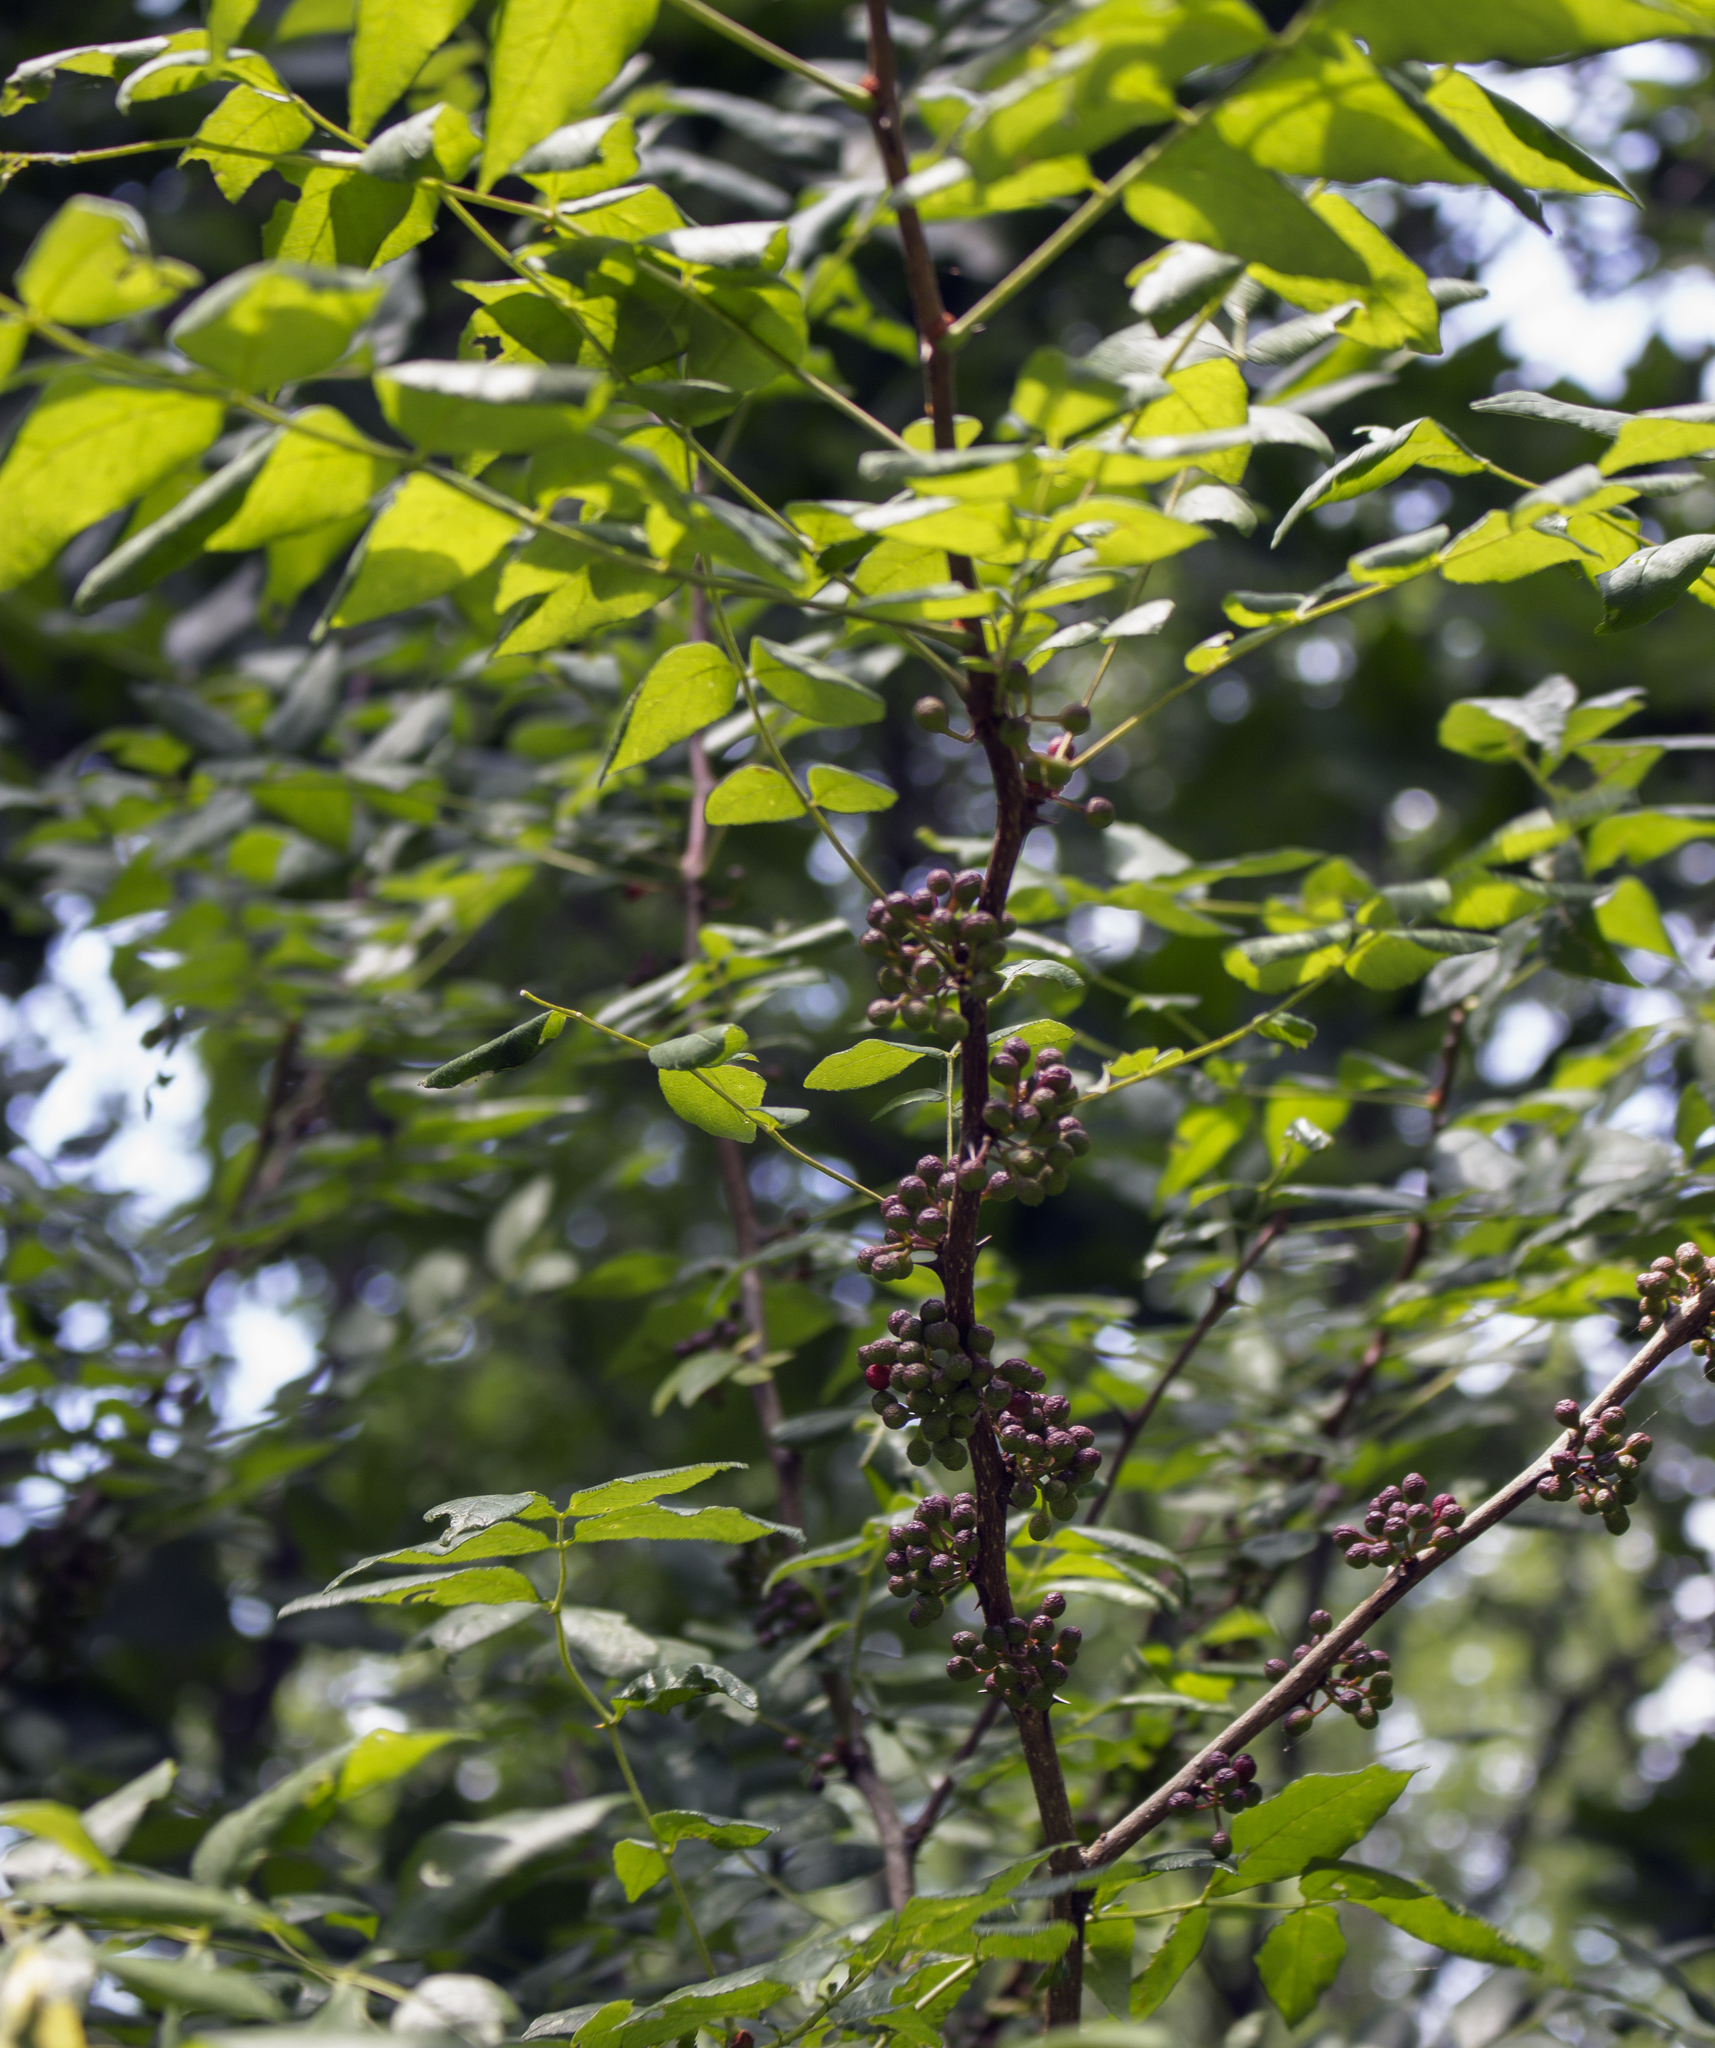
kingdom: Plantae
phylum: Tracheophyta
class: Magnoliopsida
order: Sapindales
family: Rutaceae
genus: Zanthoxylum
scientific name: Zanthoxylum americanum
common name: Northern prickly-ash
